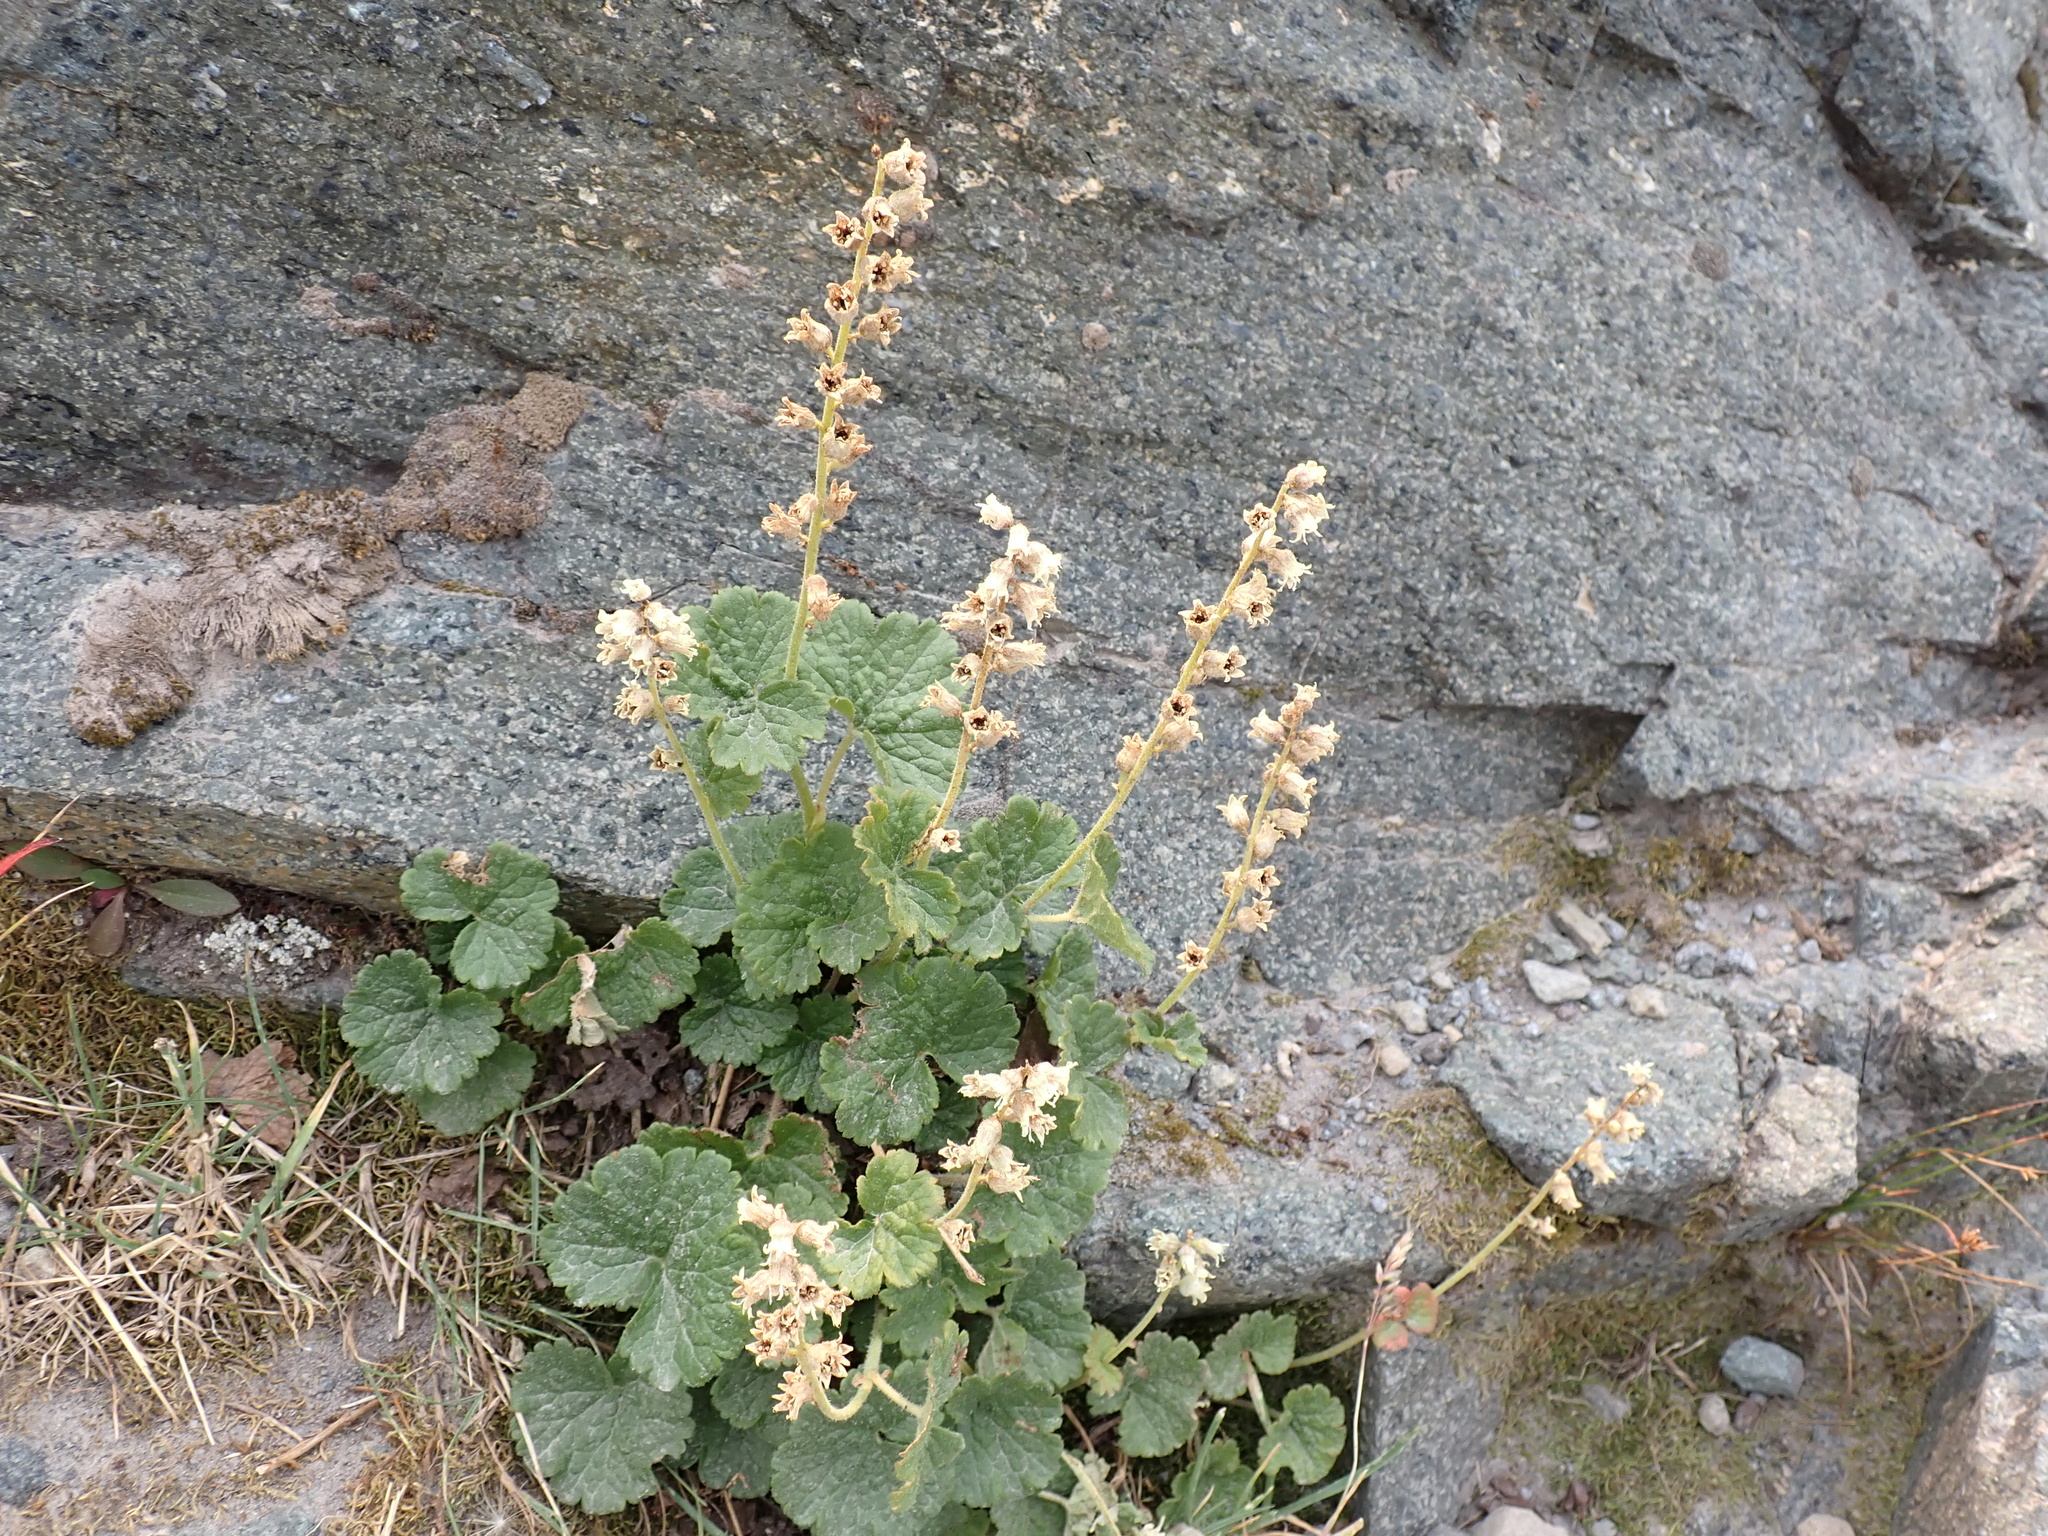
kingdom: Plantae
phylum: Tracheophyta
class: Magnoliopsida
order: Saxifragales
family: Saxifragaceae
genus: Elmera
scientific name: Elmera racemosa
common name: Elmera
